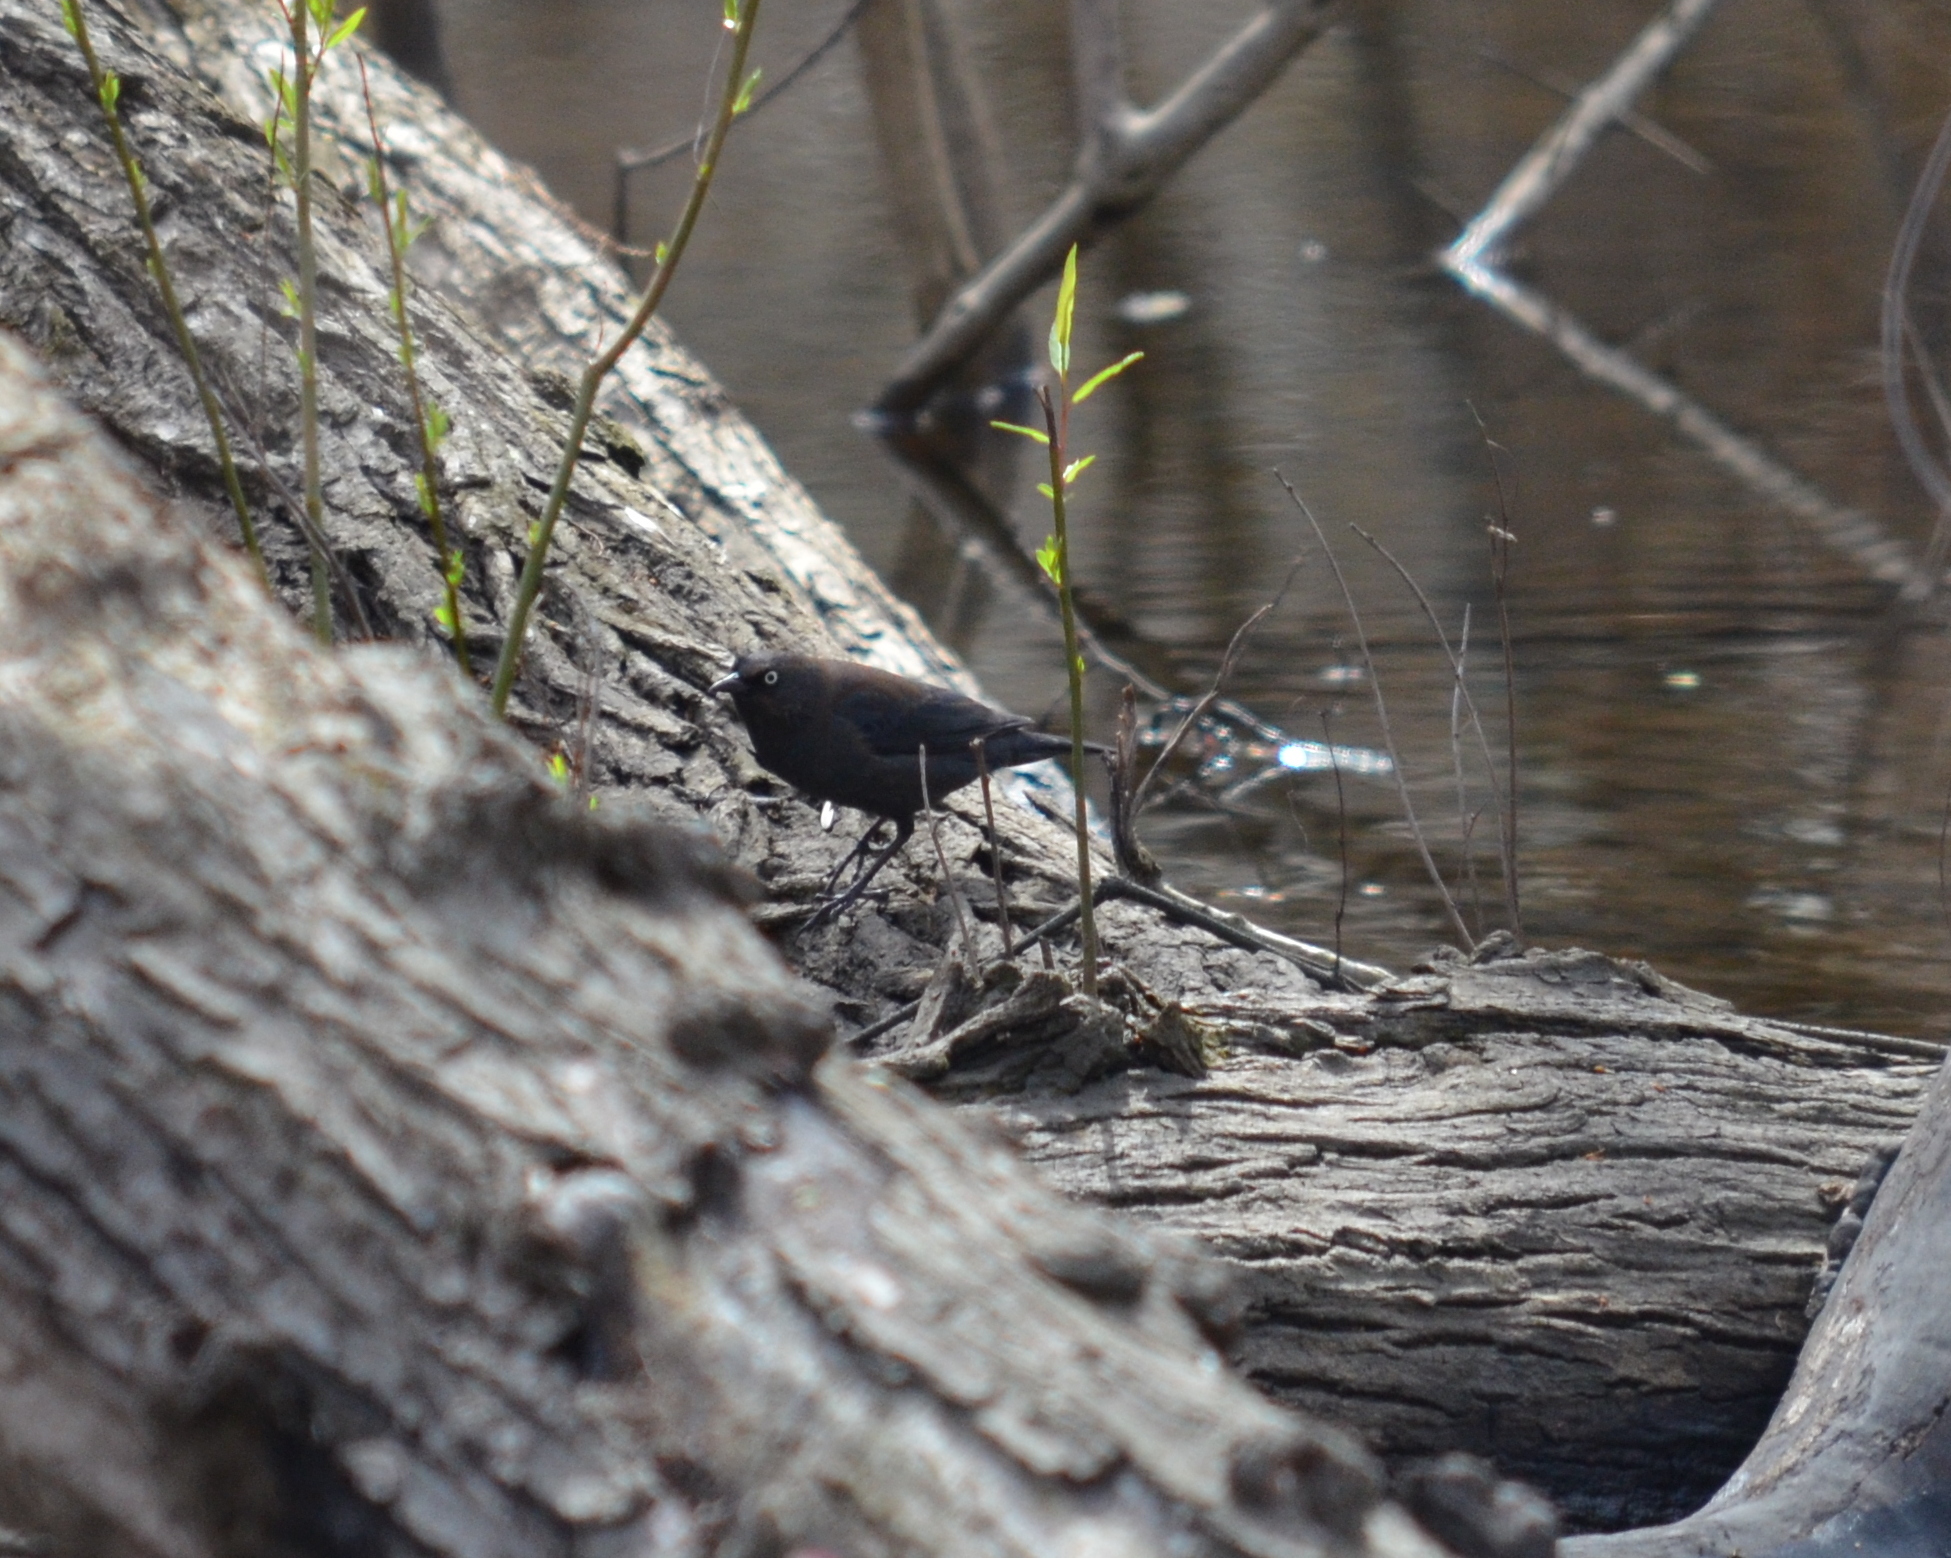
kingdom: Animalia
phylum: Chordata
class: Aves
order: Passeriformes
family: Icteridae
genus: Euphagus
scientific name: Euphagus carolinus
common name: Rusty blackbird
